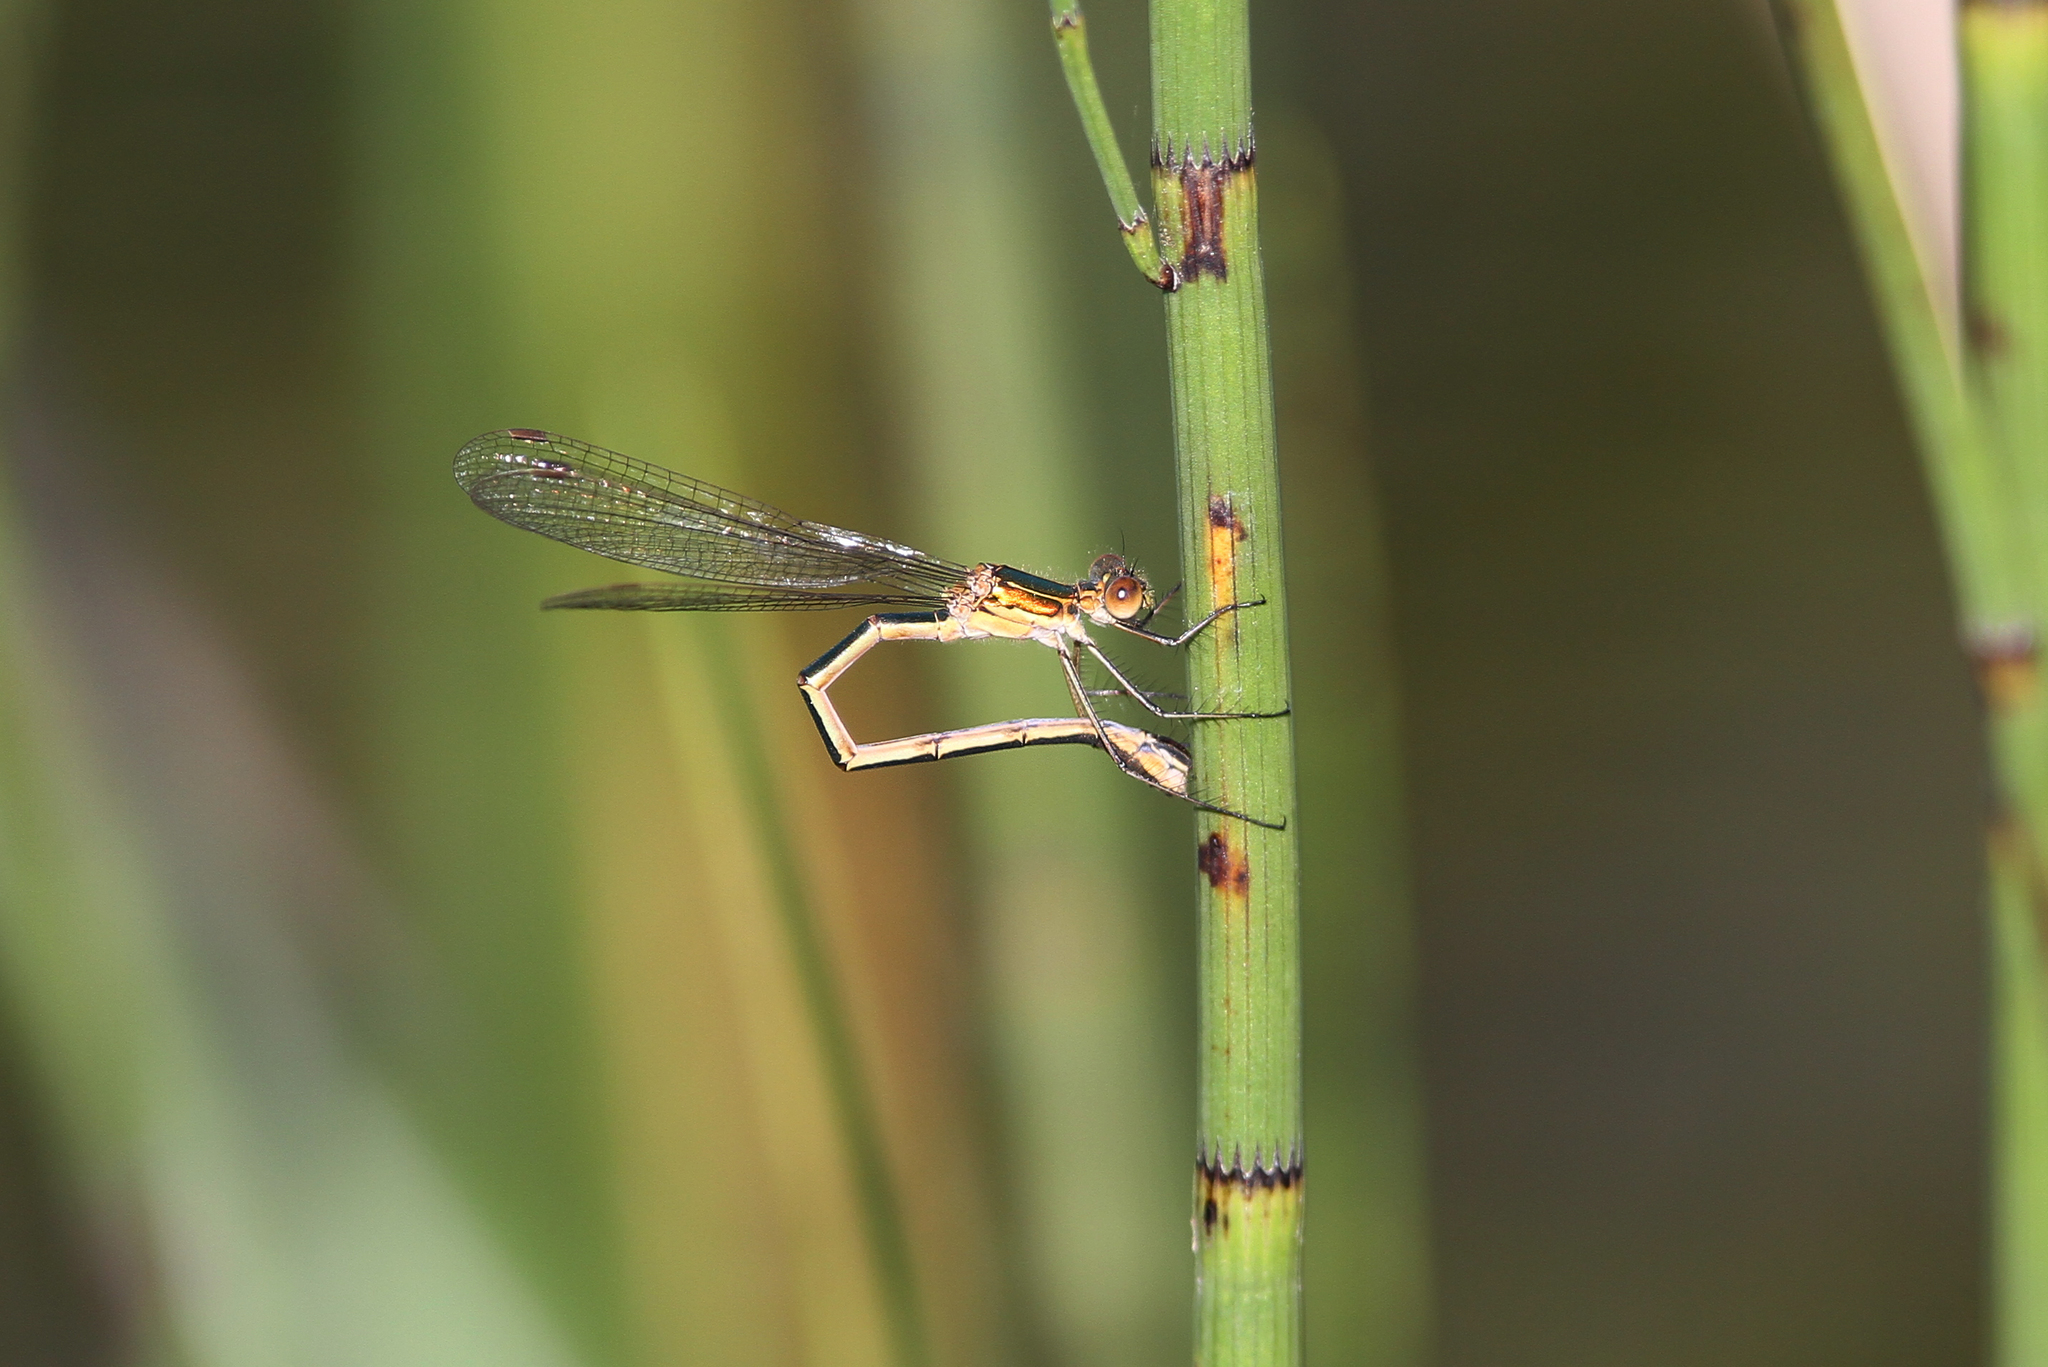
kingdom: Animalia
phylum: Arthropoda
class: Insecta
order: Odonata
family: Lestidae
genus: Lestes
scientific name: Lestes sponsa
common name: Common spreadwing
